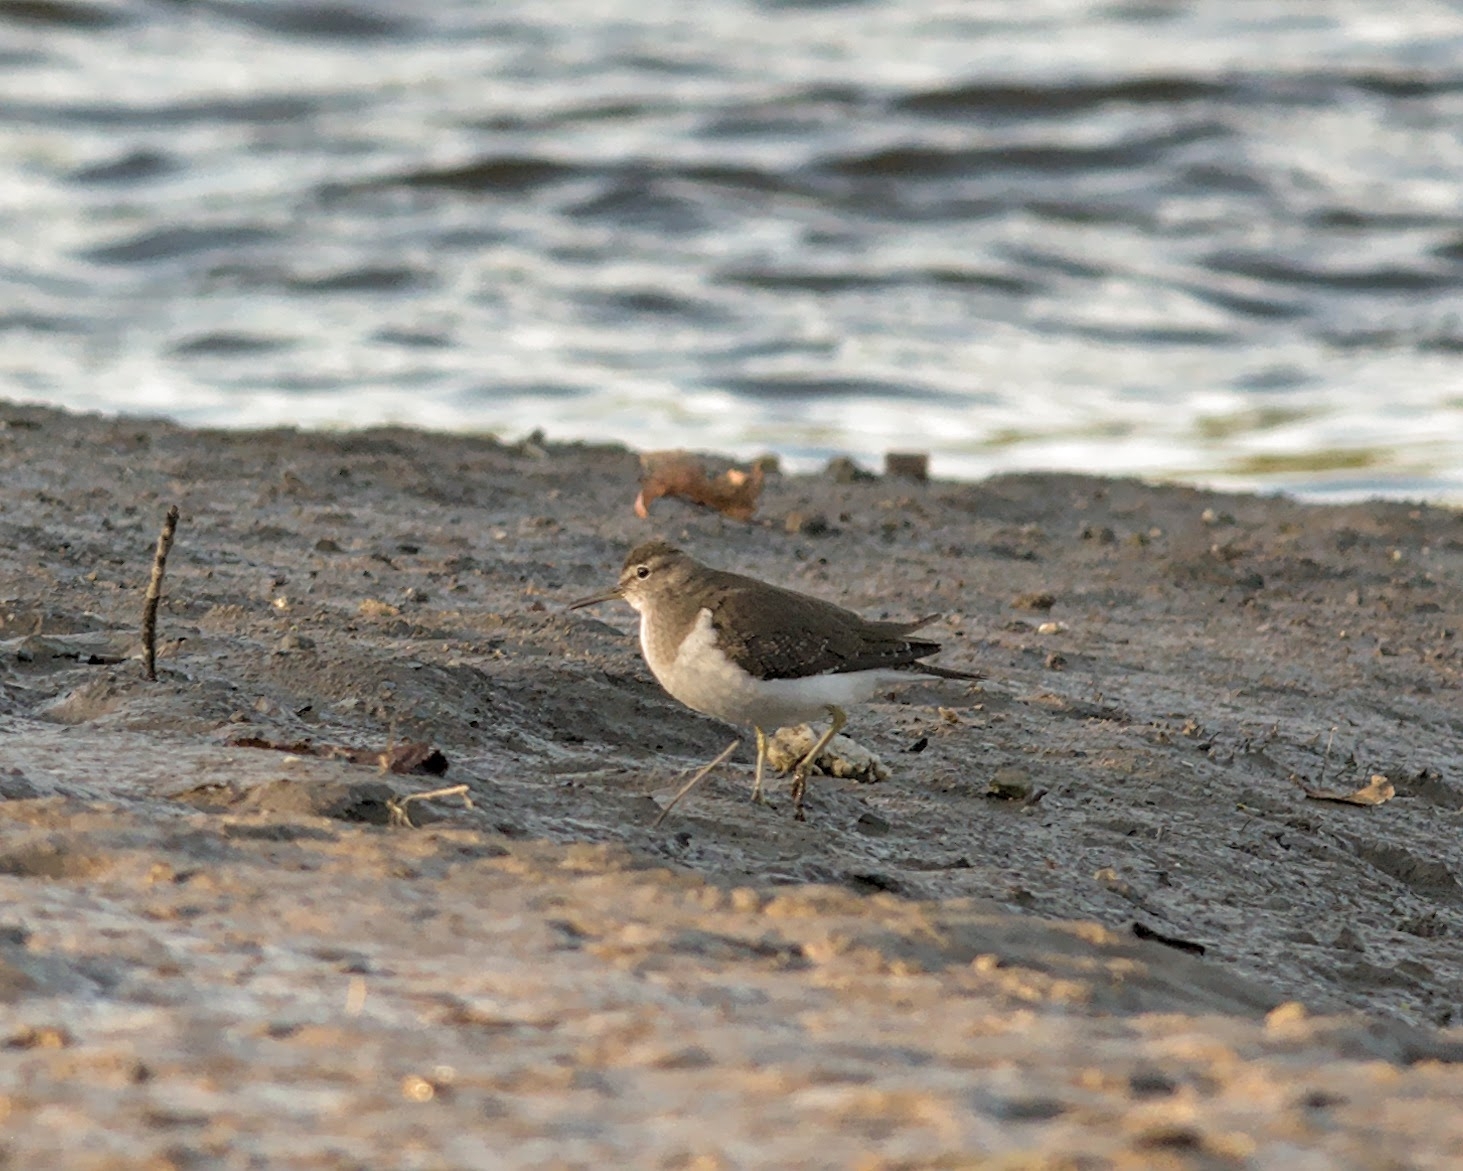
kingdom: Animalia
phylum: Chordata
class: Aves
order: Charadriiformes
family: Scolopacidae
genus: Actitis
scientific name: Actitis hypoleucos
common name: Common sandpiper
